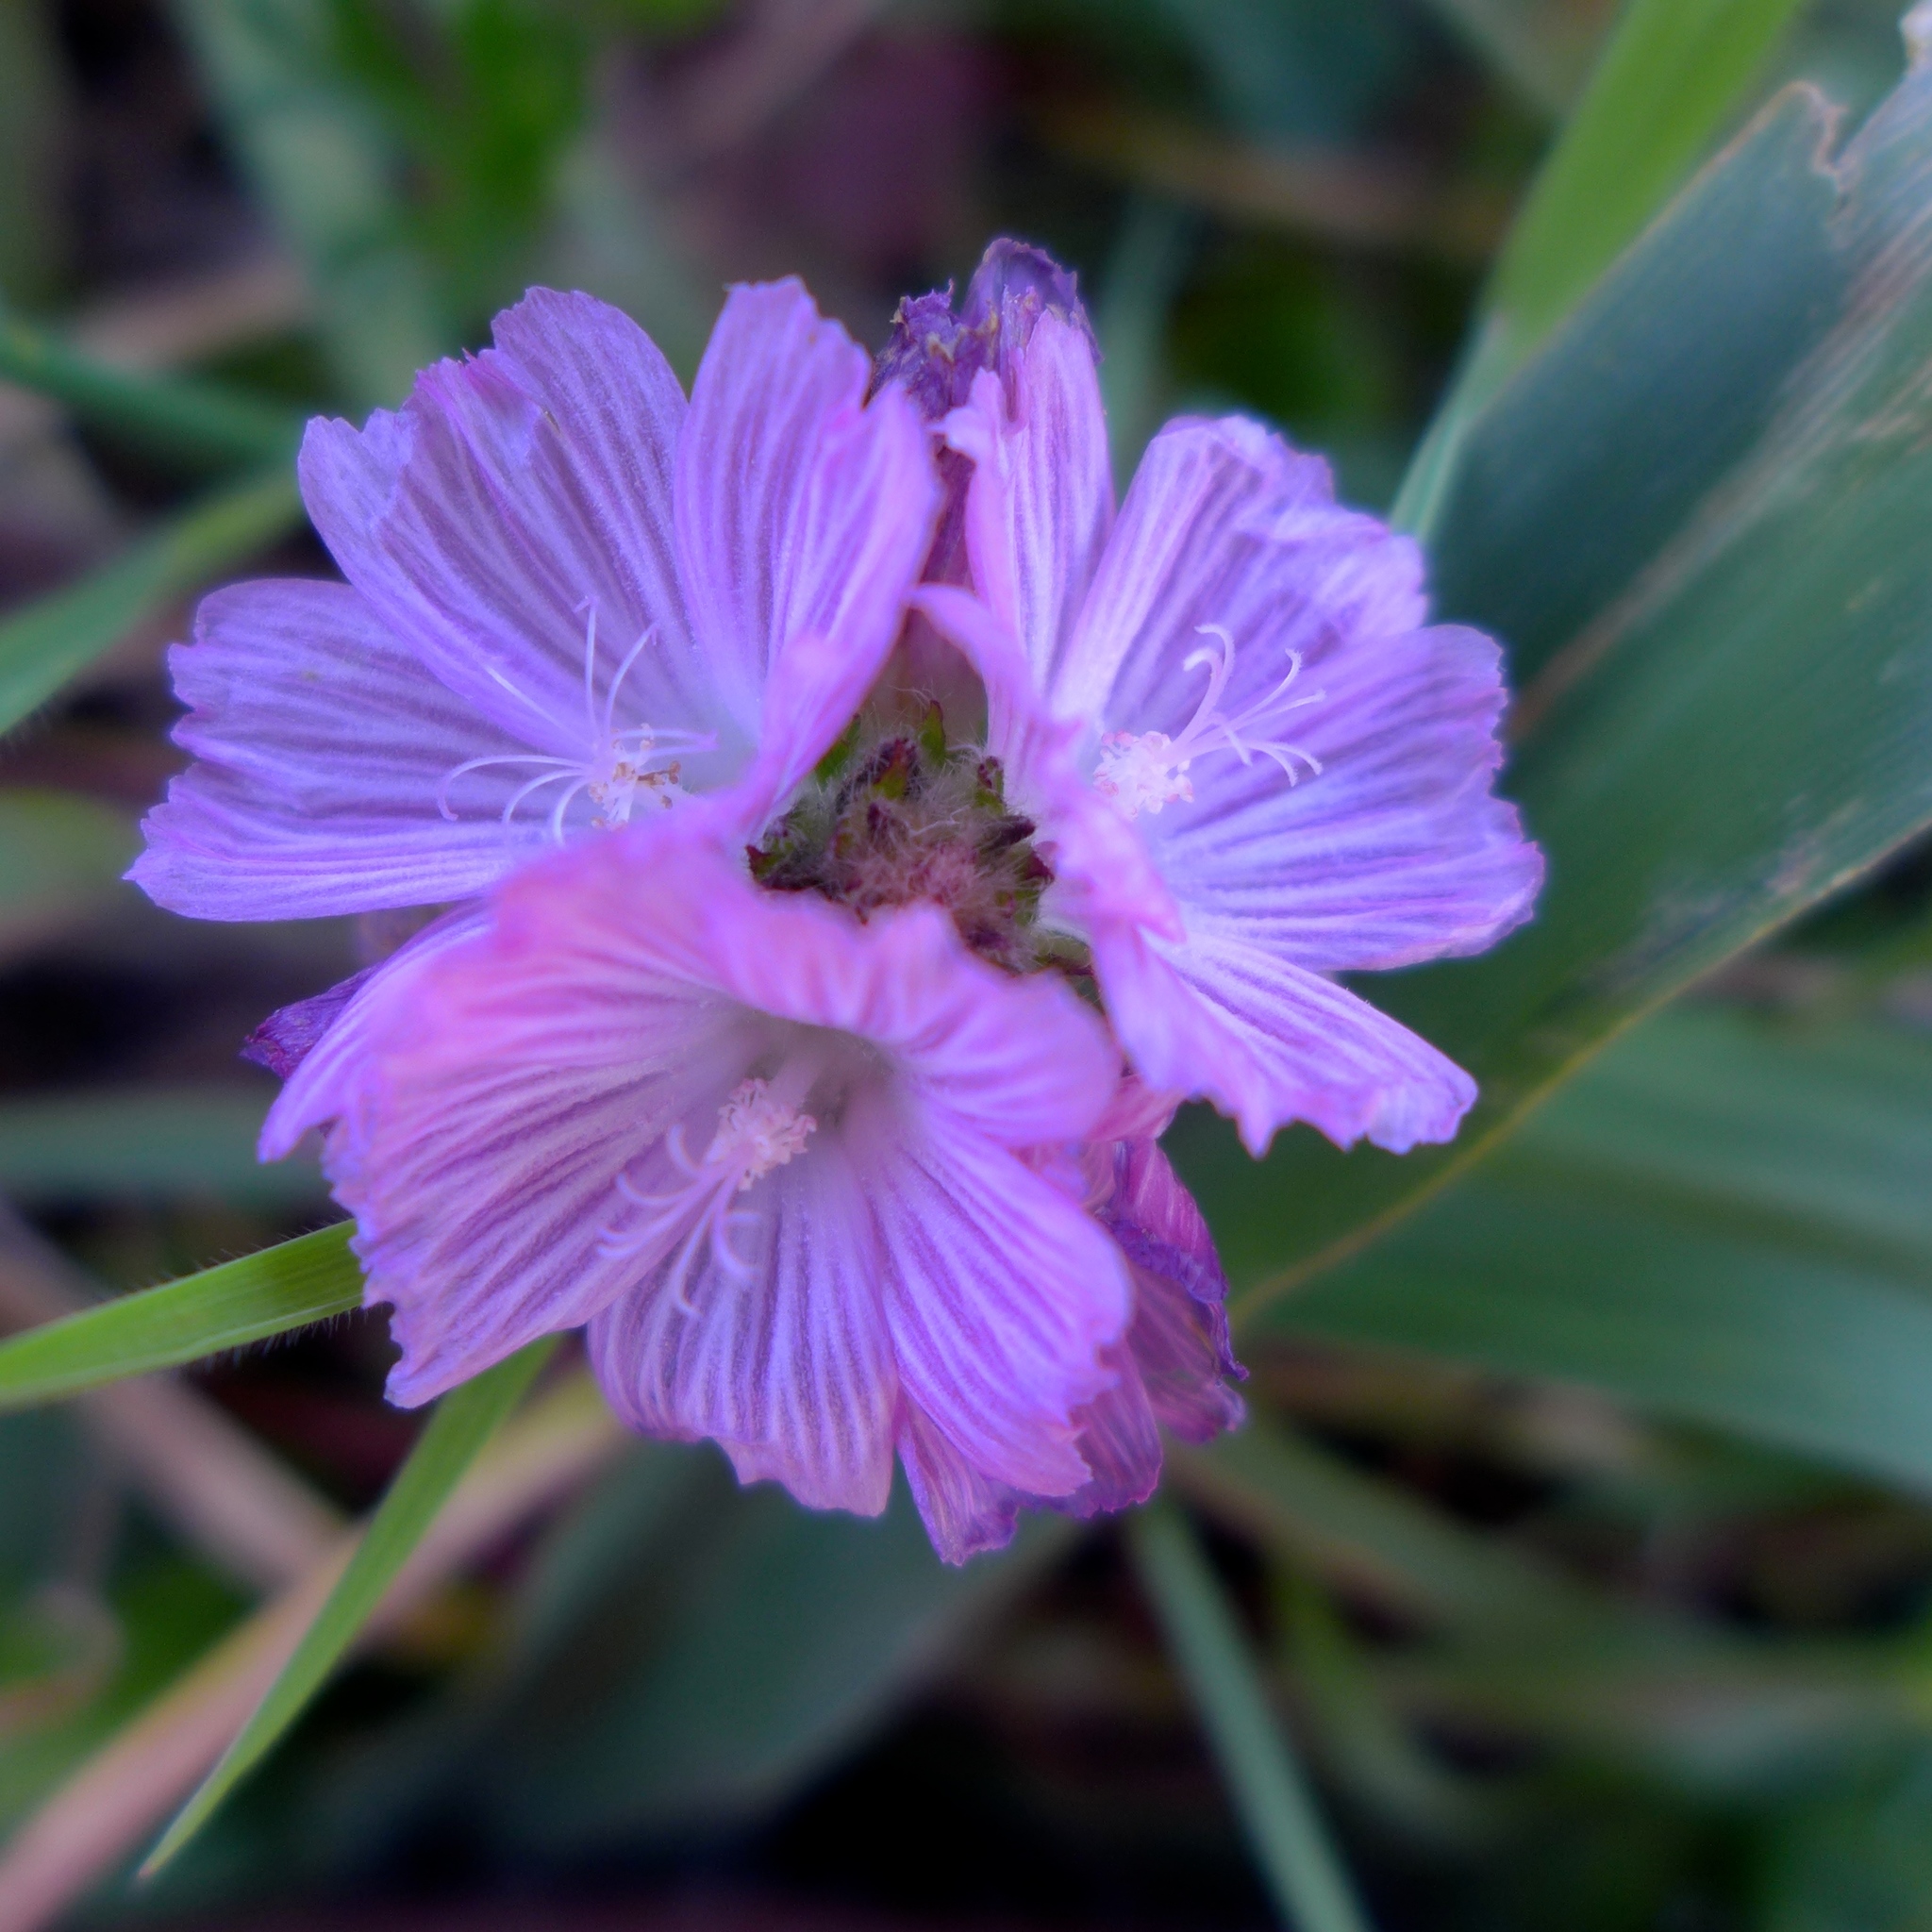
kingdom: Plantae
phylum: Tracheophyta
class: Magnoliopsida
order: Malvales
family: Malvaceae
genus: Sidalcea
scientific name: Sidalcea malviflora
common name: Greek mallow
